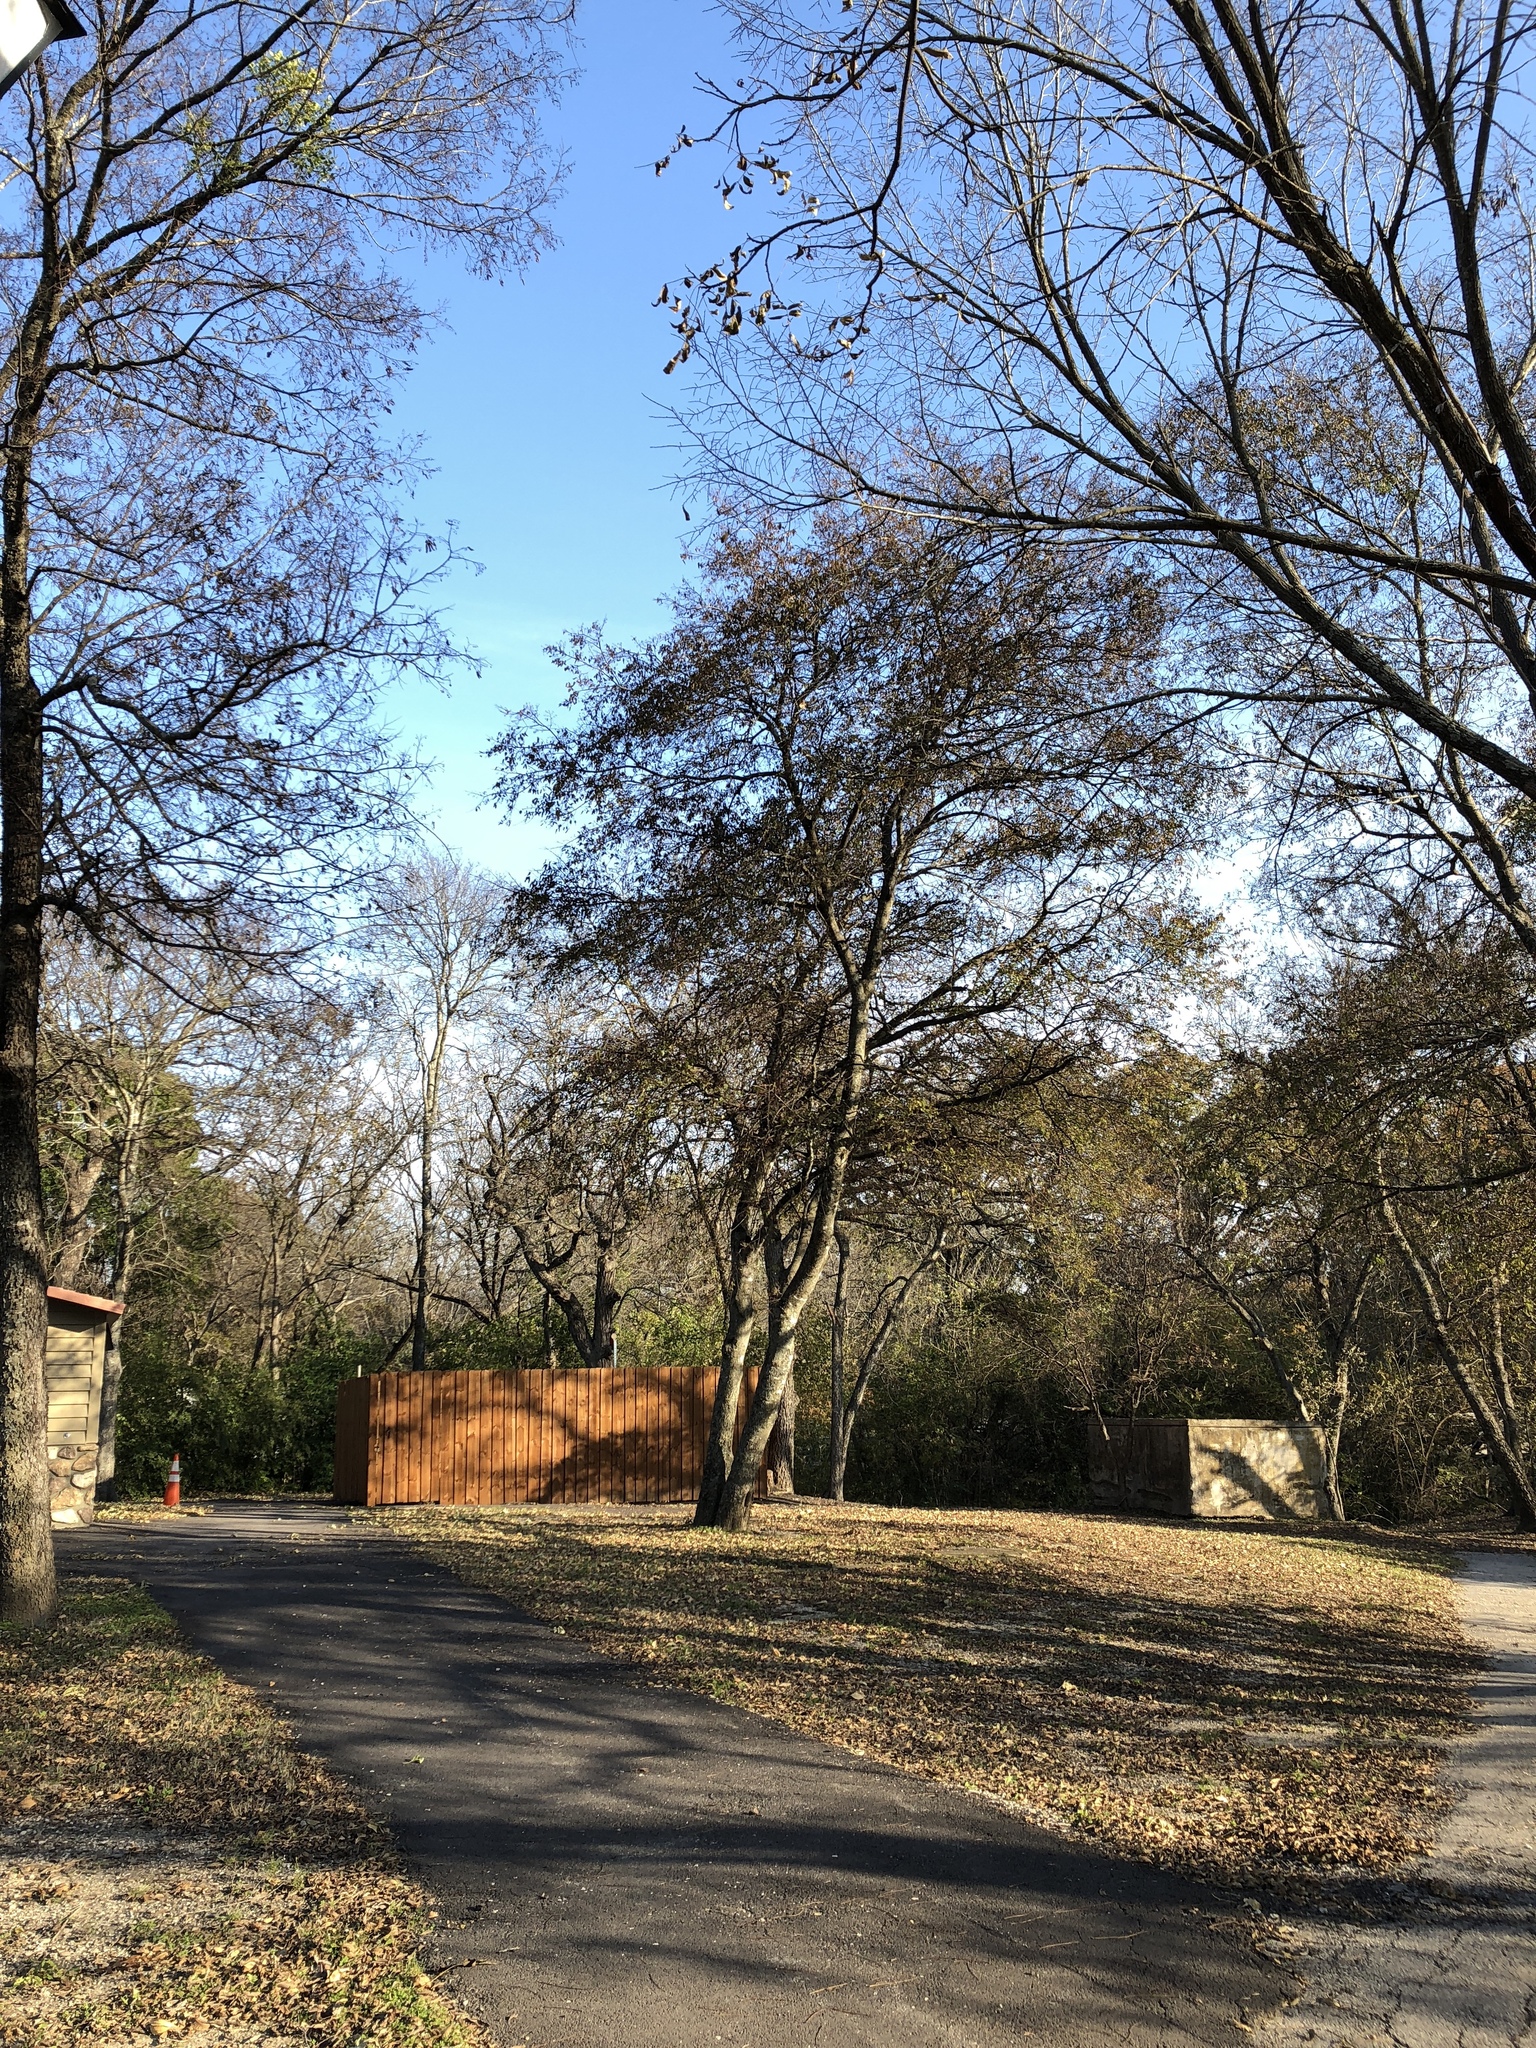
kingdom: Plantae
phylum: Tracheophyta
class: Magnoliopsida
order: Rosales
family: Cannabaceae
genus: Celtis
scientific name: Celtis laevigata
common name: Sugarberry
